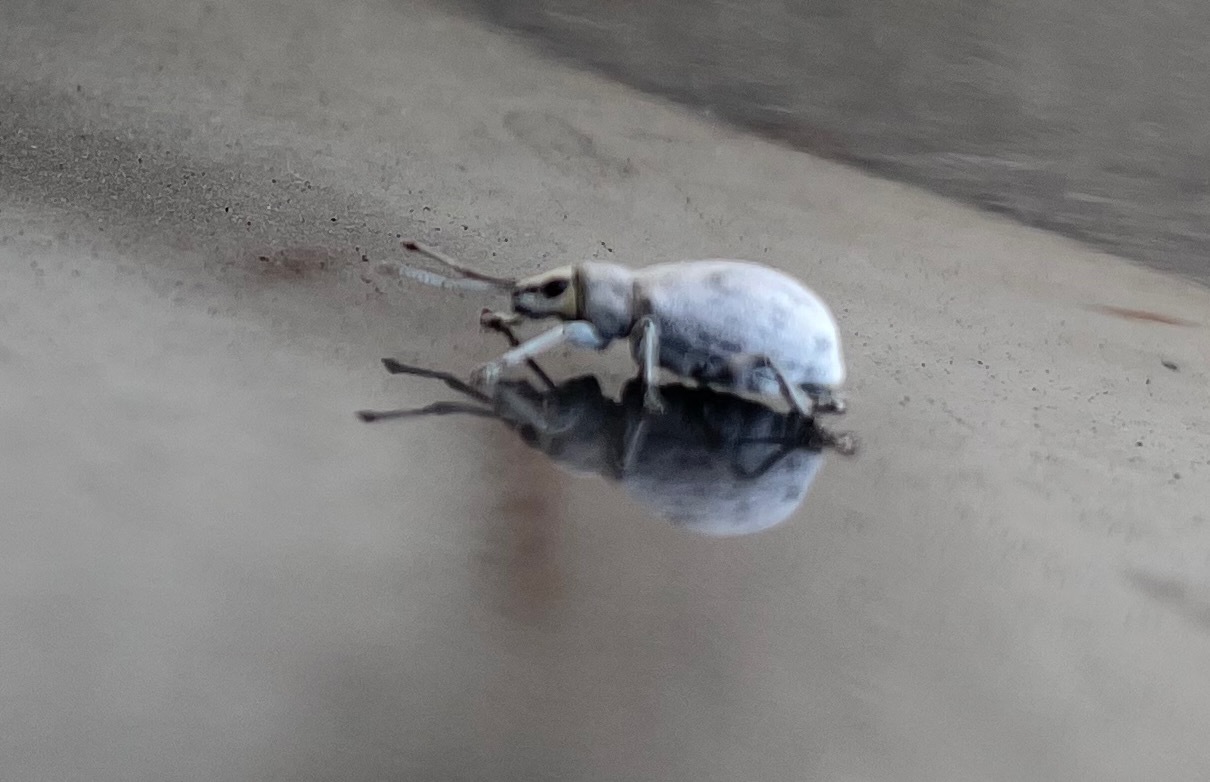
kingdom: Animalia
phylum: Arthropoda
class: Insecta
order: Coleoptera
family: Curculionidae
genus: Myllocerus
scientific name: Myllocerus undecimpustulatus
